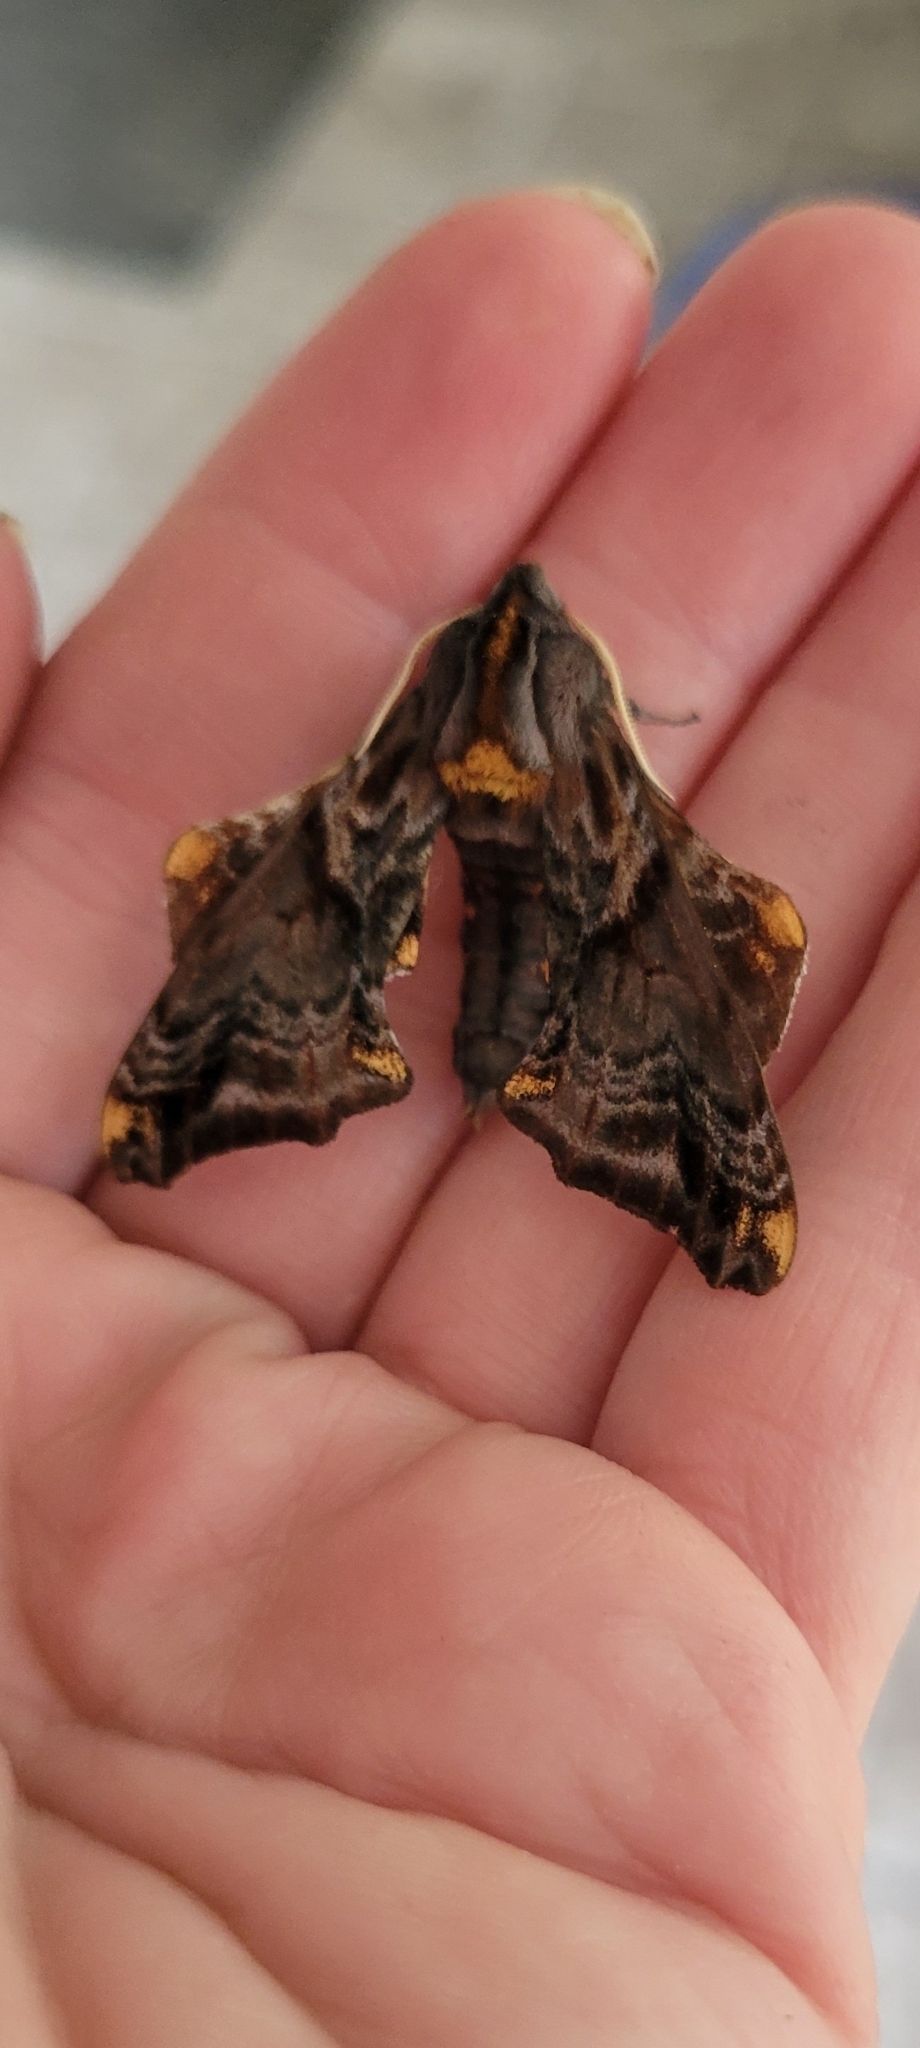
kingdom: Animalia
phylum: Arthropoda
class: Insecta
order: Lepidoptera
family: Sphingidae
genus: Paonias
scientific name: Paonias myops
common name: Small-eyed sphinx
